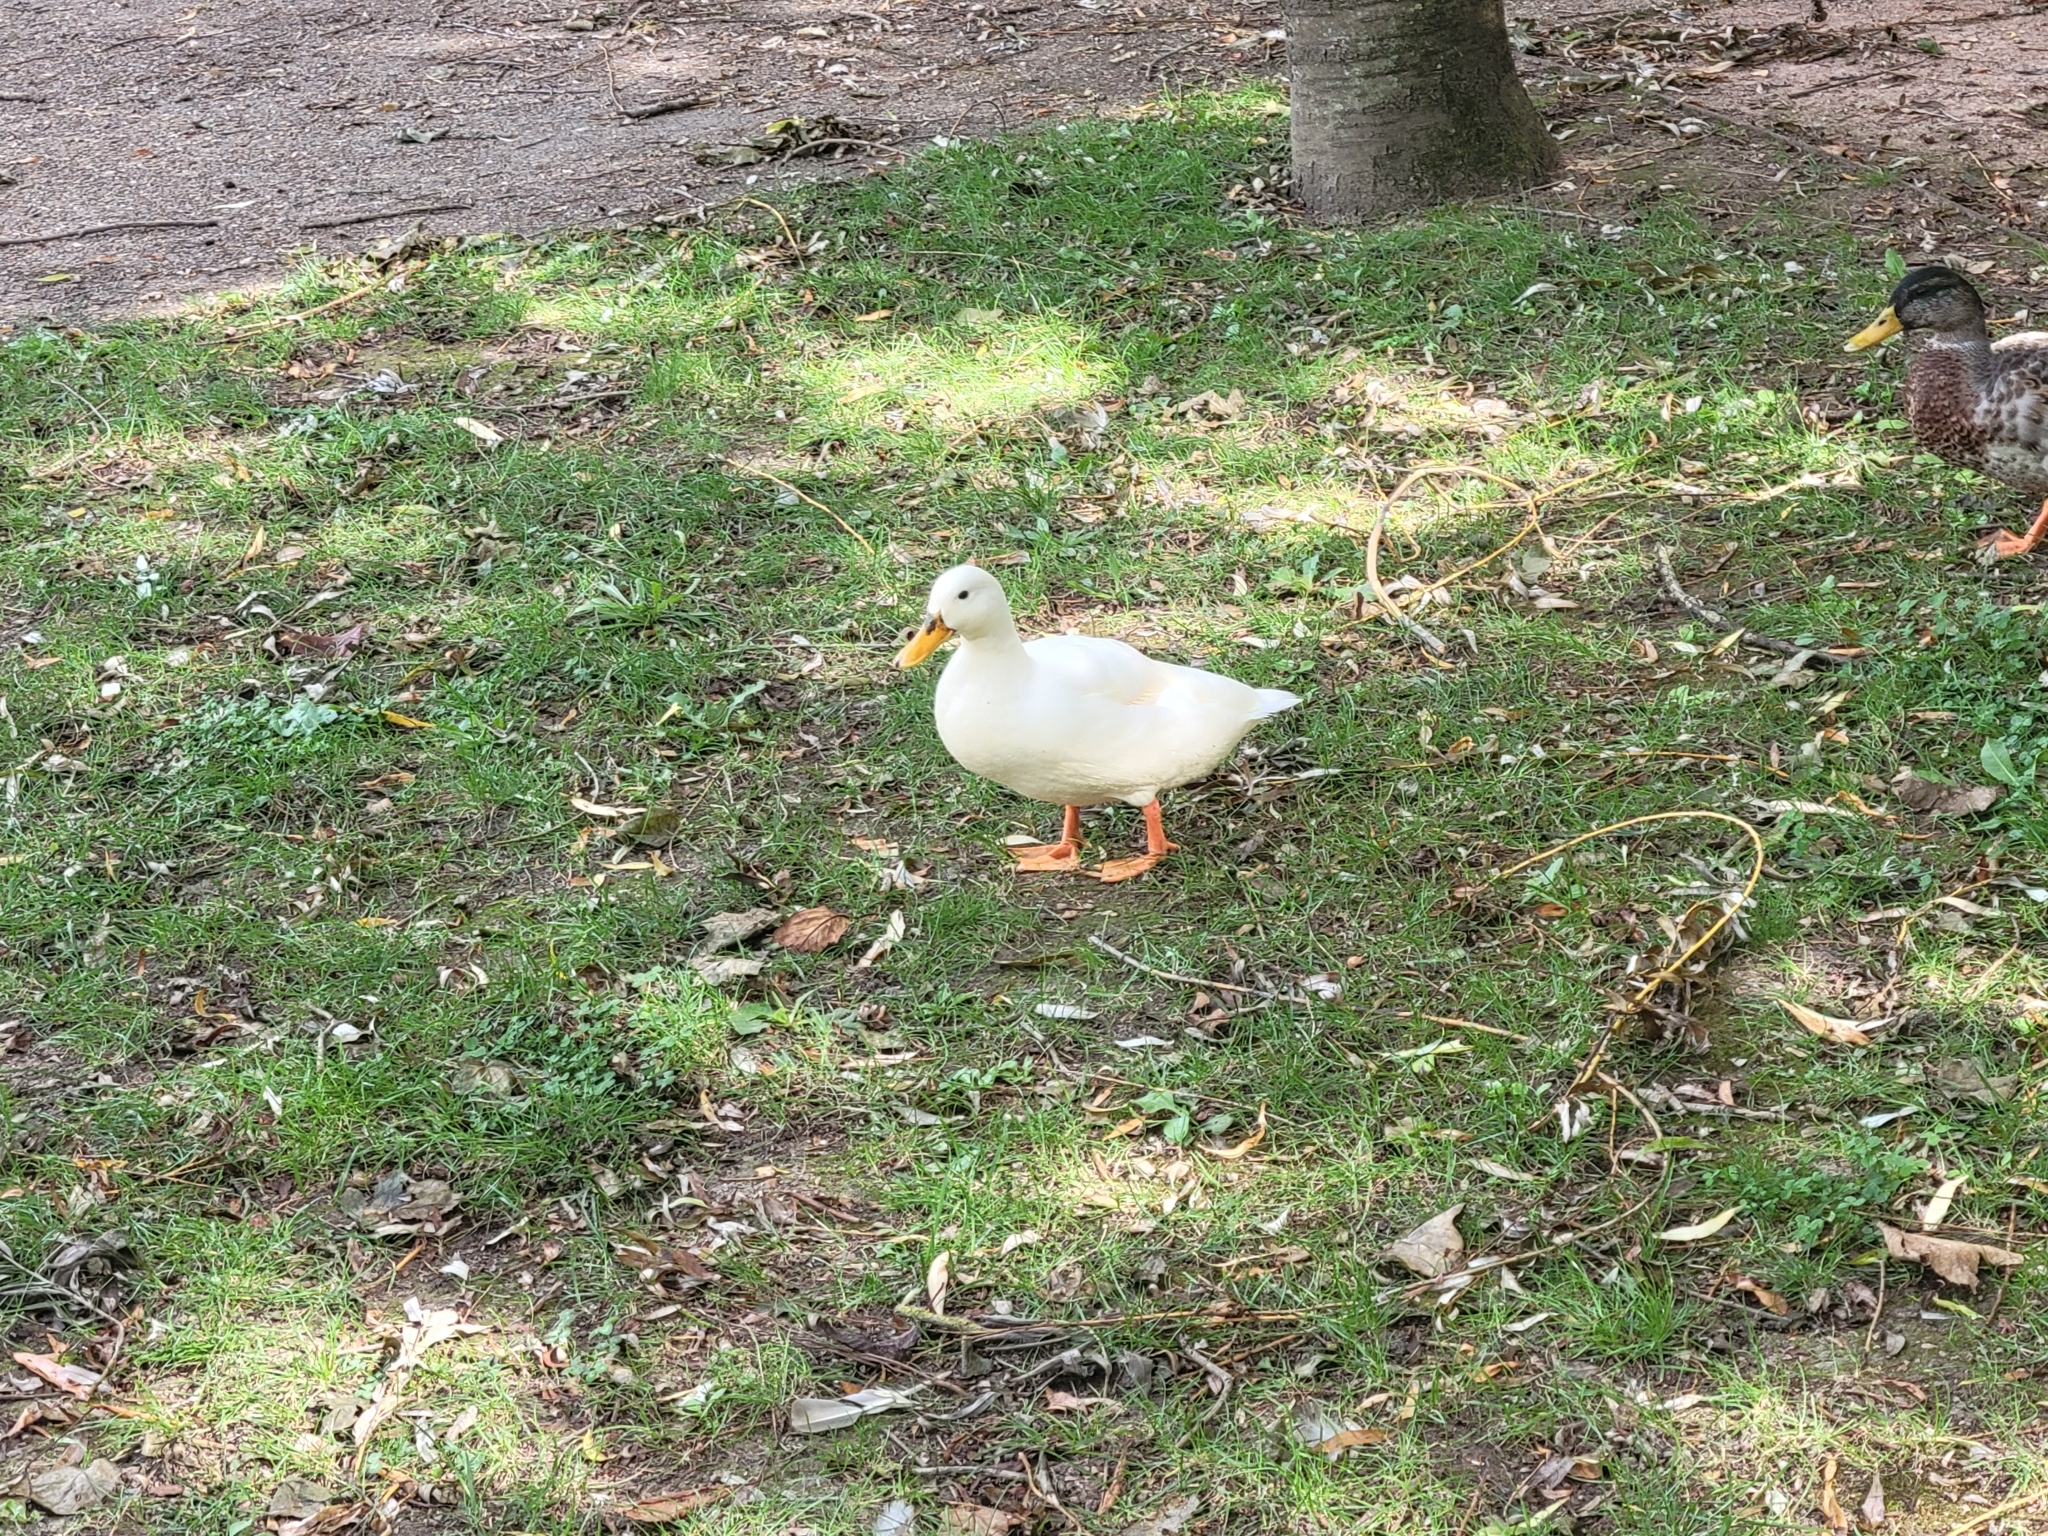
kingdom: Animalia
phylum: Chordata
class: Aves
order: Anseriformes
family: Anatidae
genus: Anas
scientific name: Anas platyrhynchos
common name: Mallard
